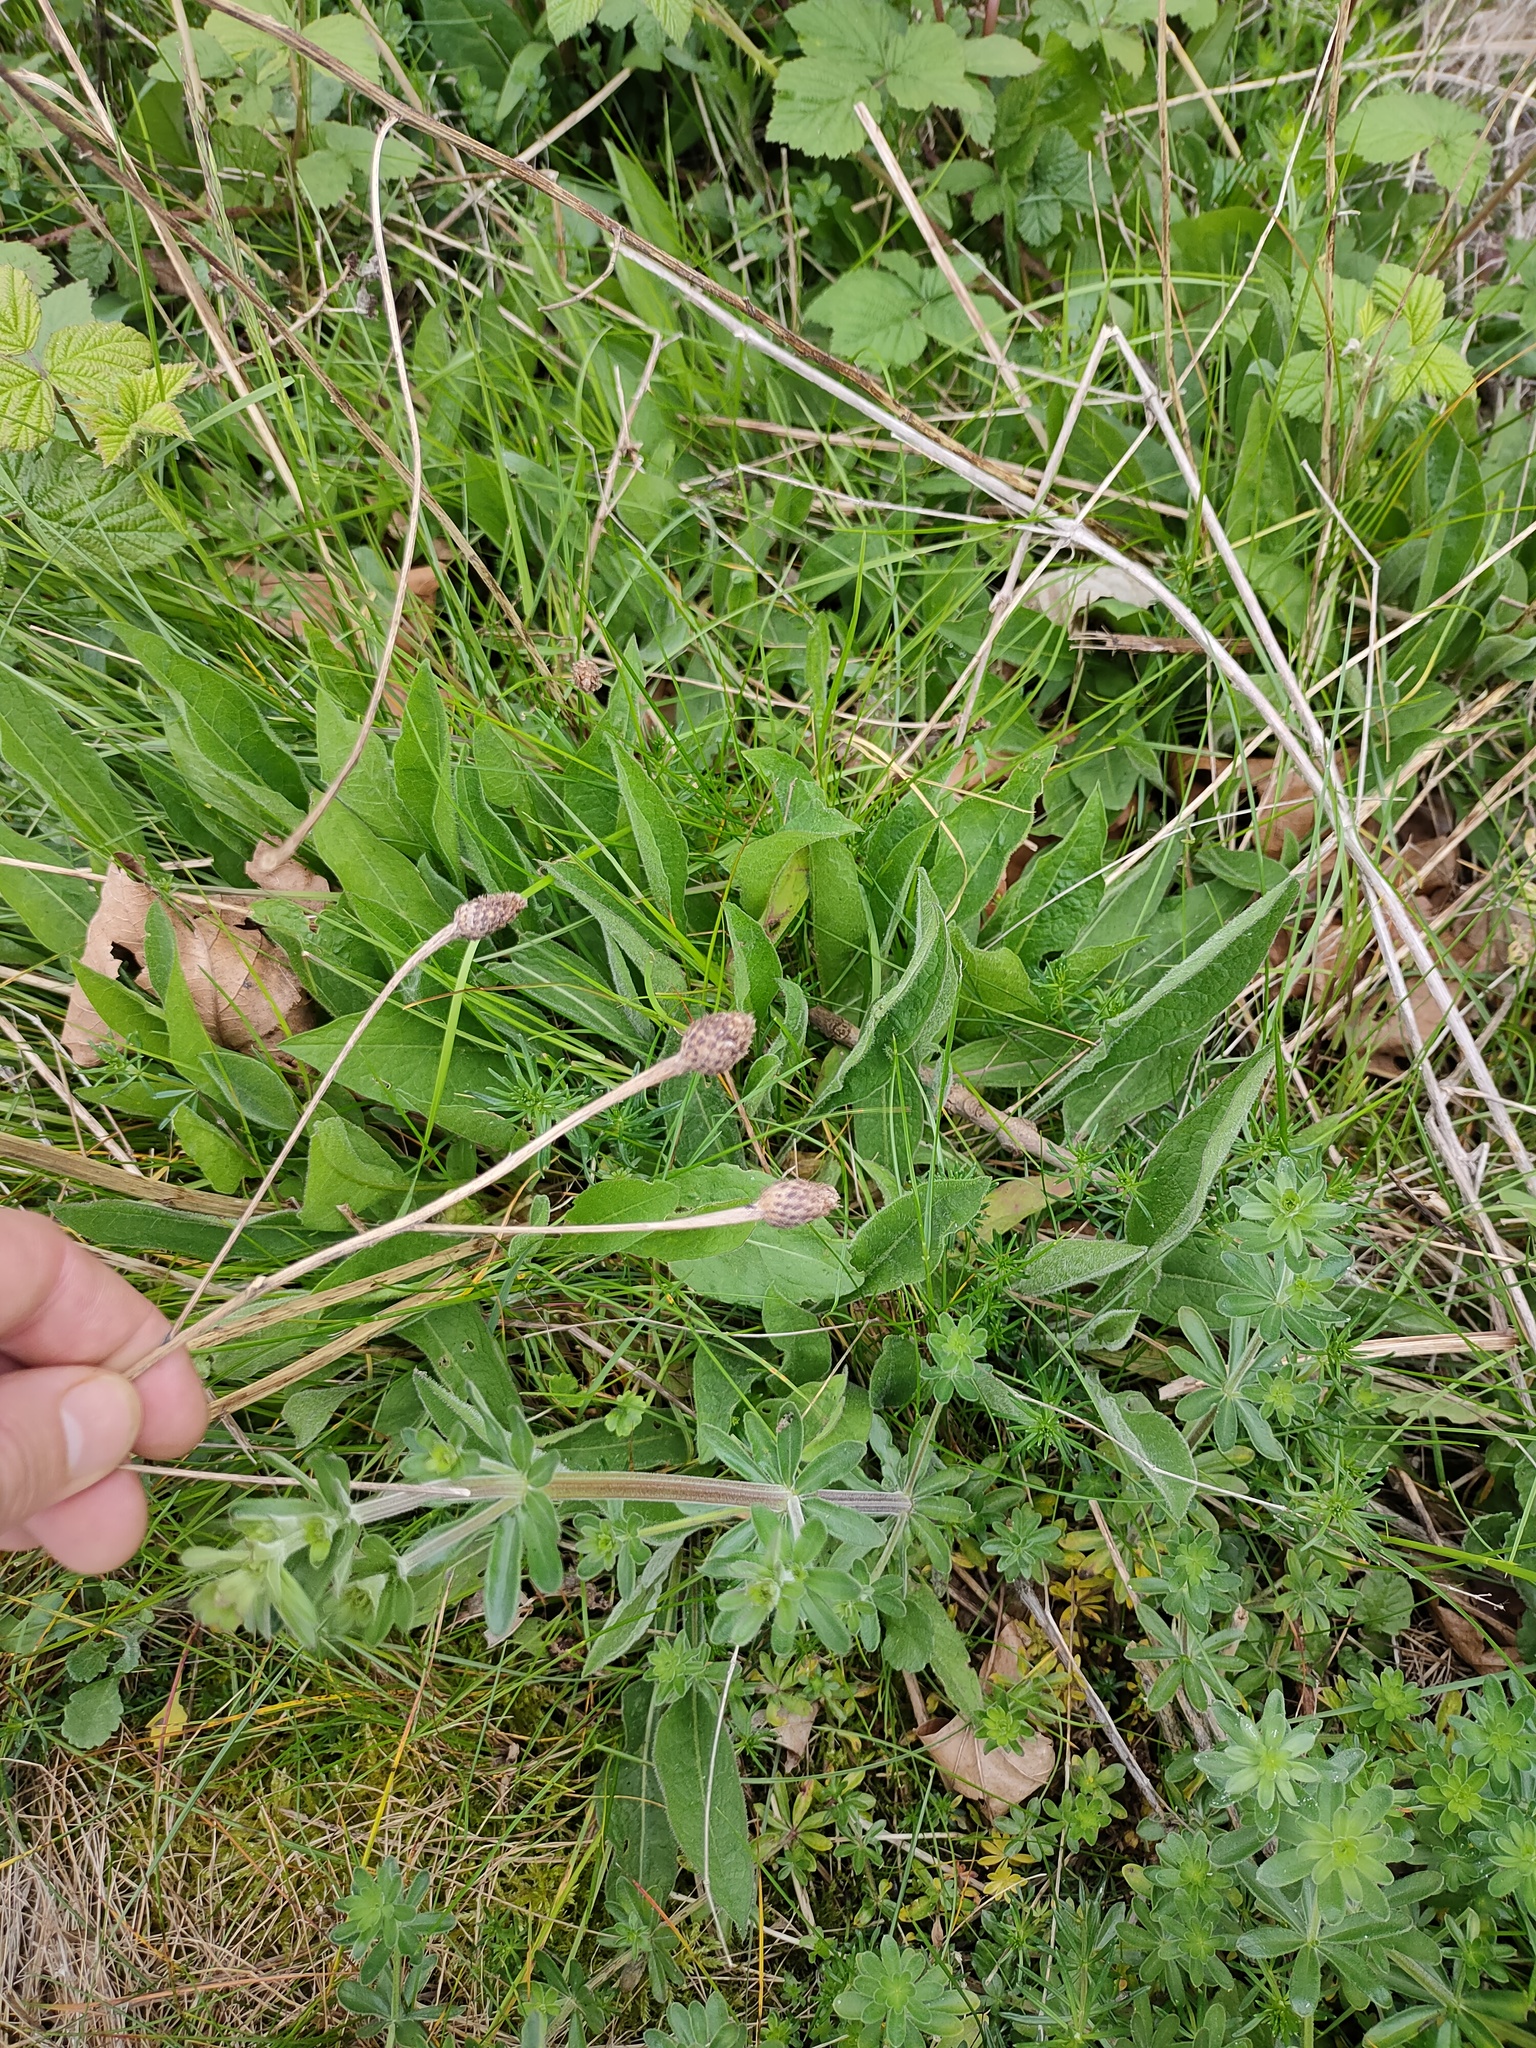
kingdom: Plantae
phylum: Tracheophyta
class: Magnoliopsida
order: Asterales
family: Asteraceae
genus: Centaurea
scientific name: Centaurea nigra
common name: Lesser knapweed
